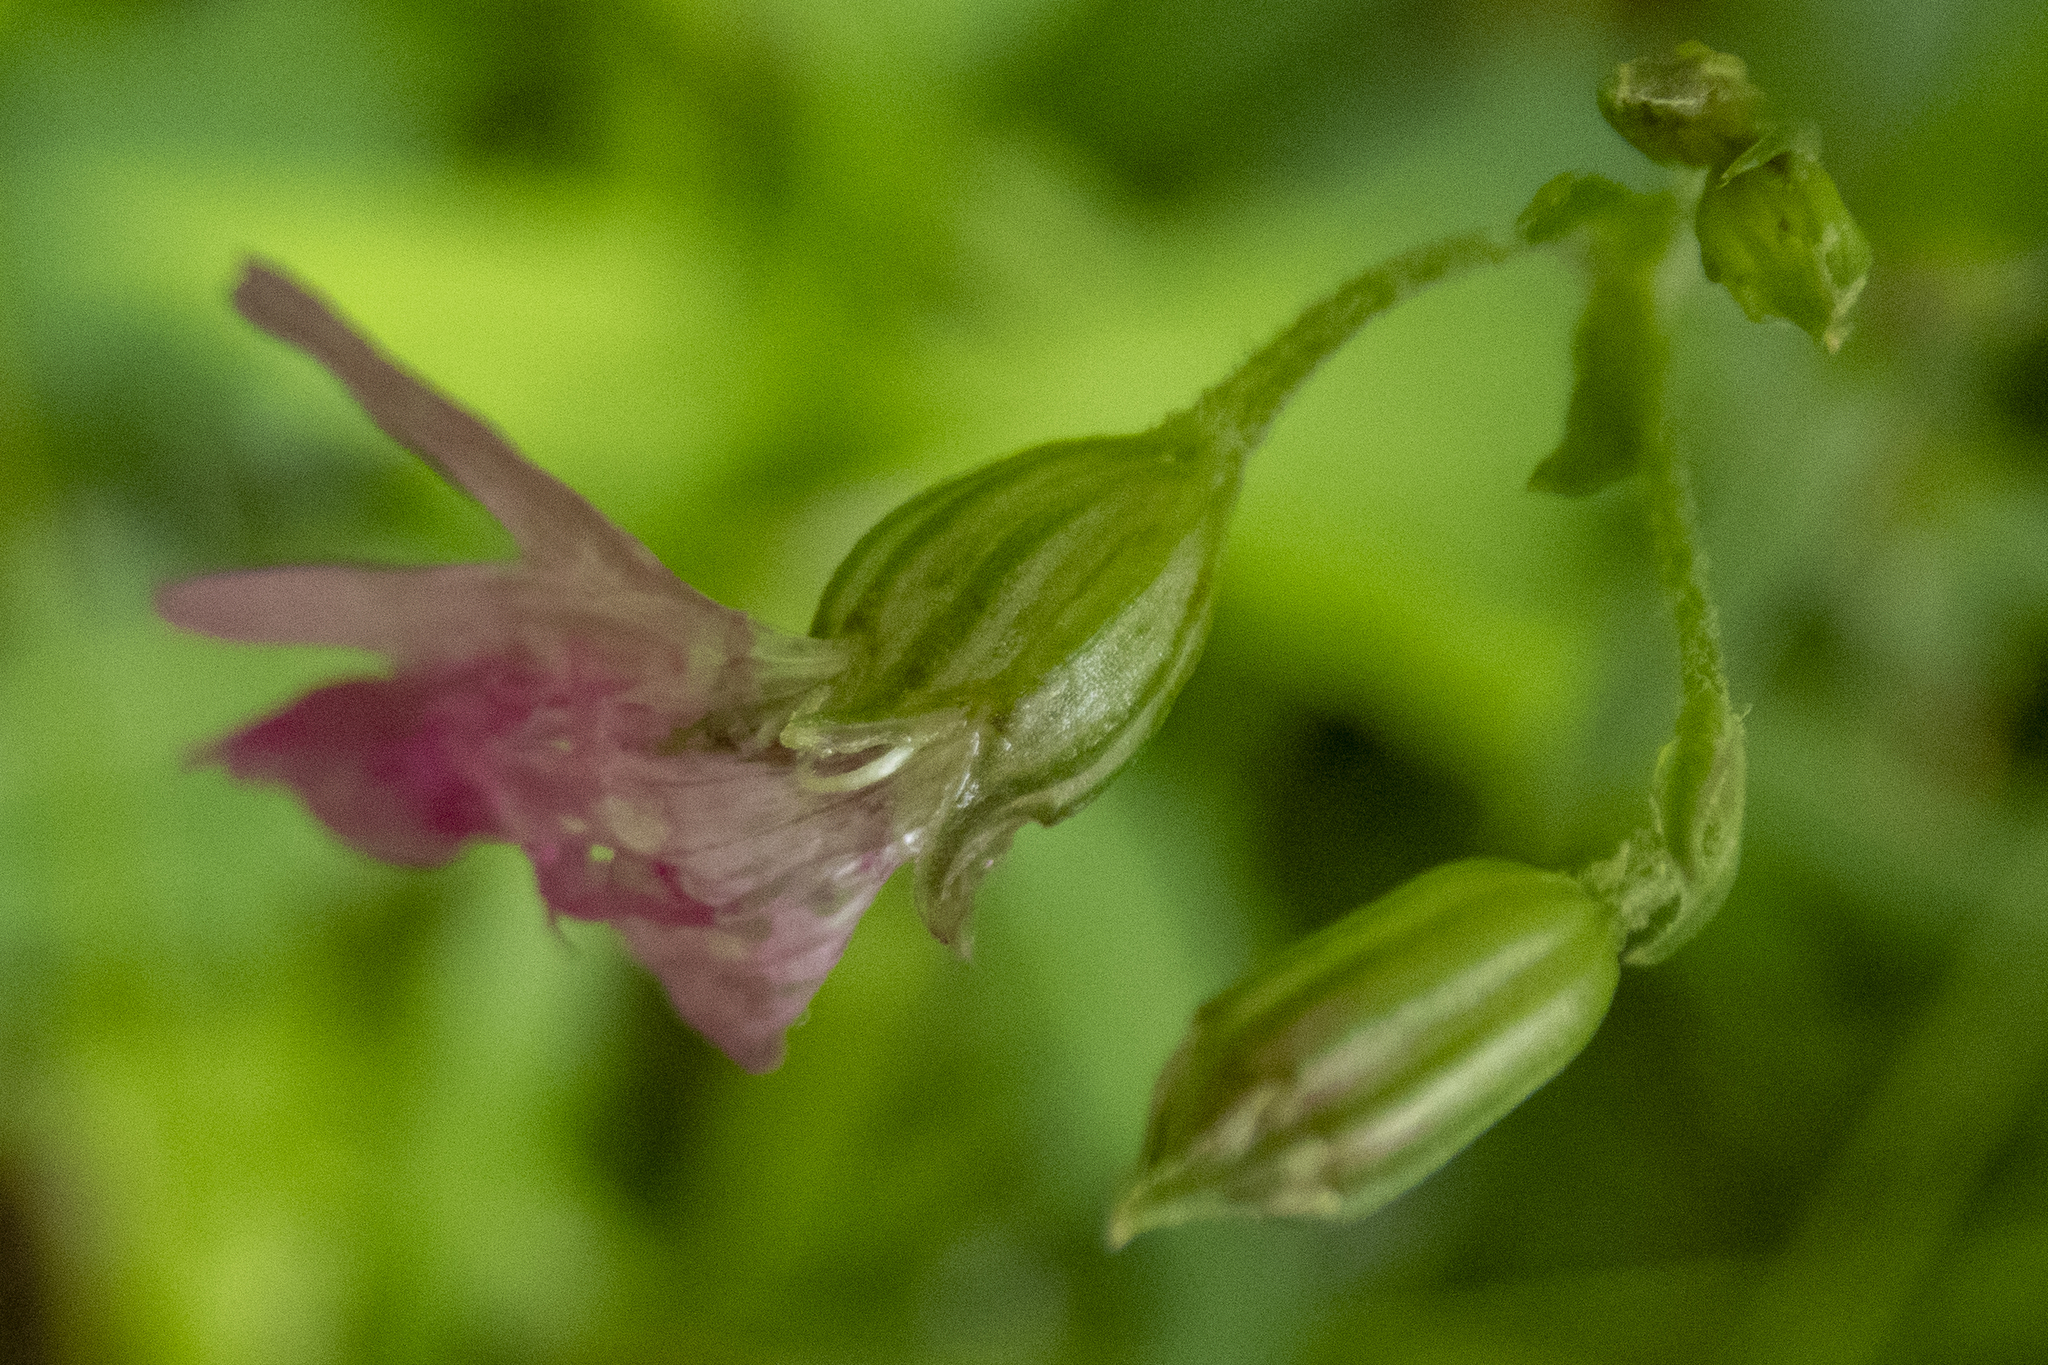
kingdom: Plantae
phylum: Tracheophyta
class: Magnoliopsida
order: Caryophyllales
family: Caryophyllaceae
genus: Silene
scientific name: Silene flos-cuculi
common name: Ragged-robin
